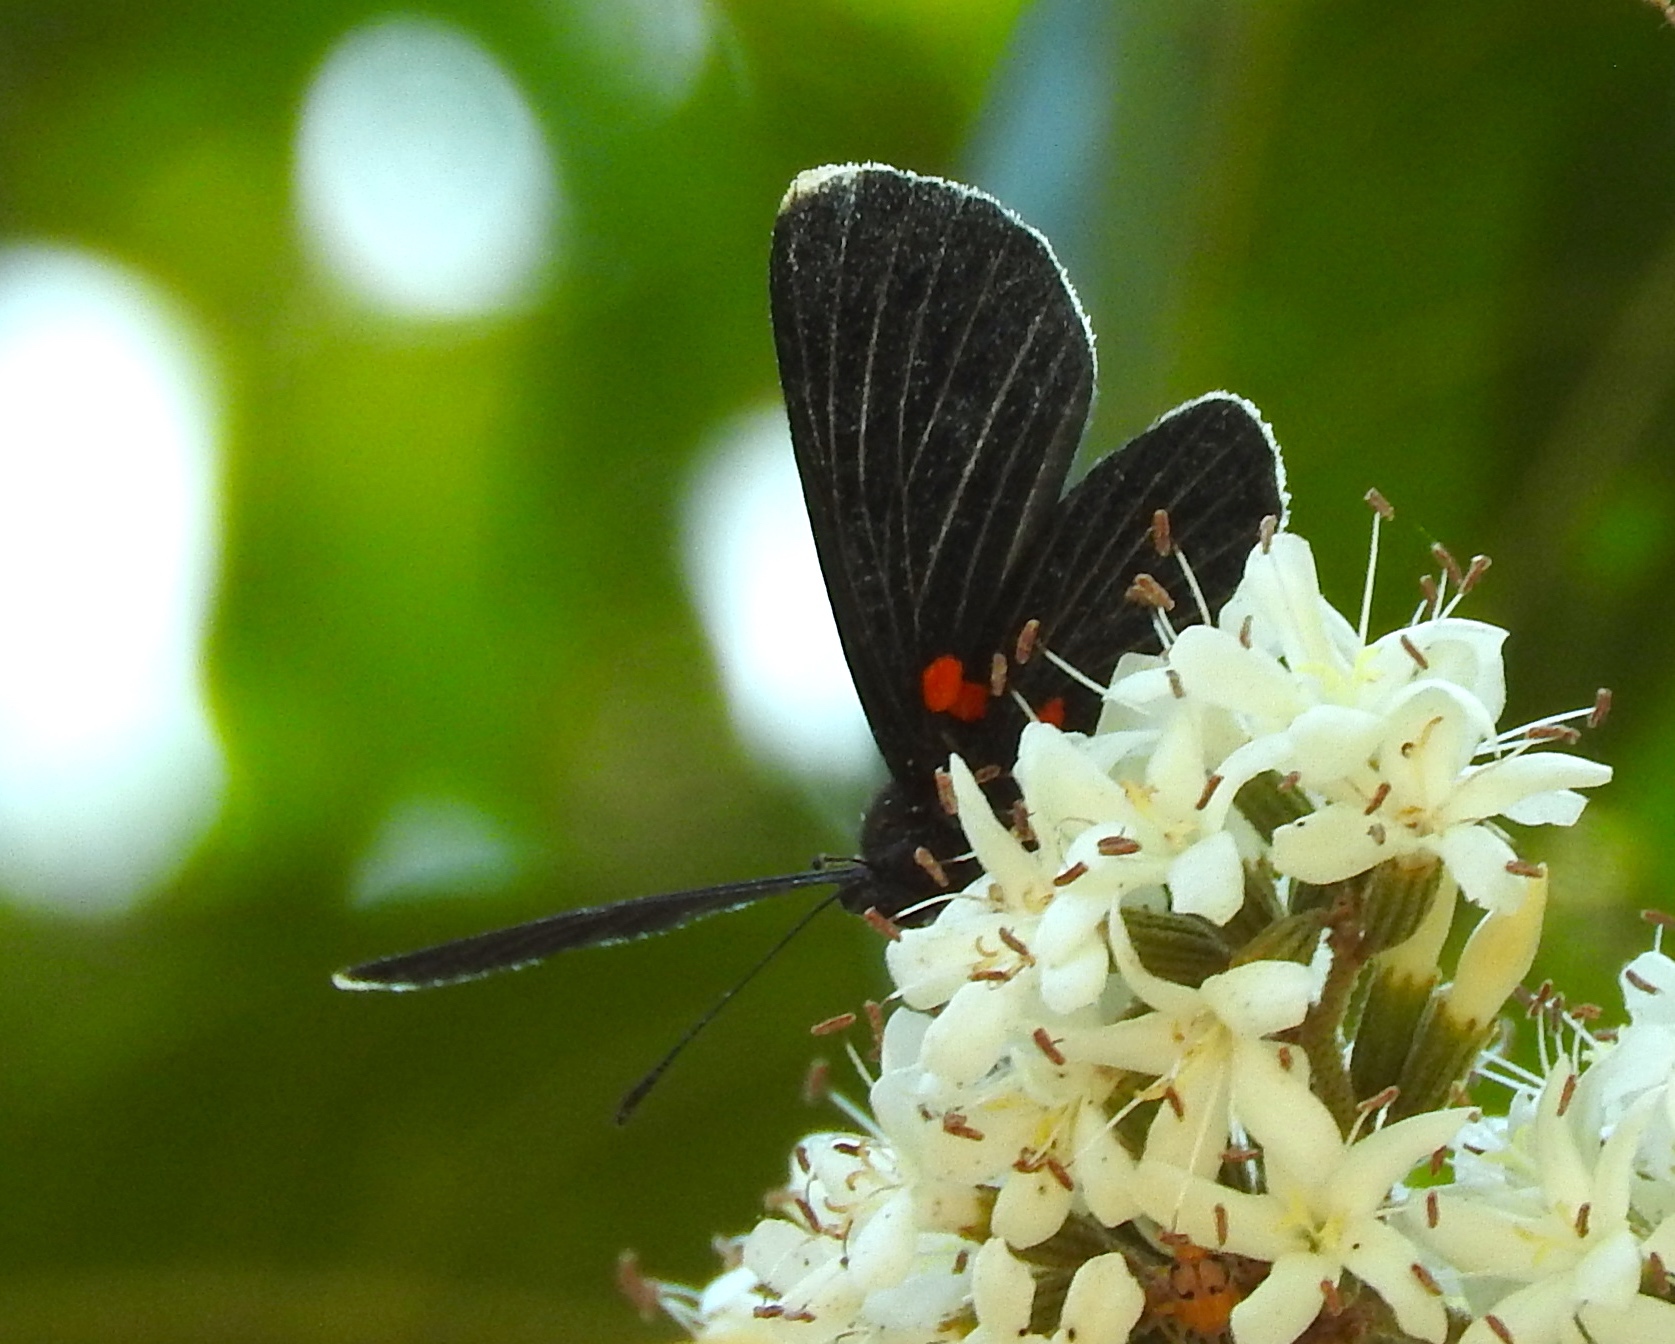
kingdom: Animalia
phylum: Arthropoda
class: Insecta
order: Lepidoptera
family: Lycaenidae
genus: Melanis
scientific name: Melanis
